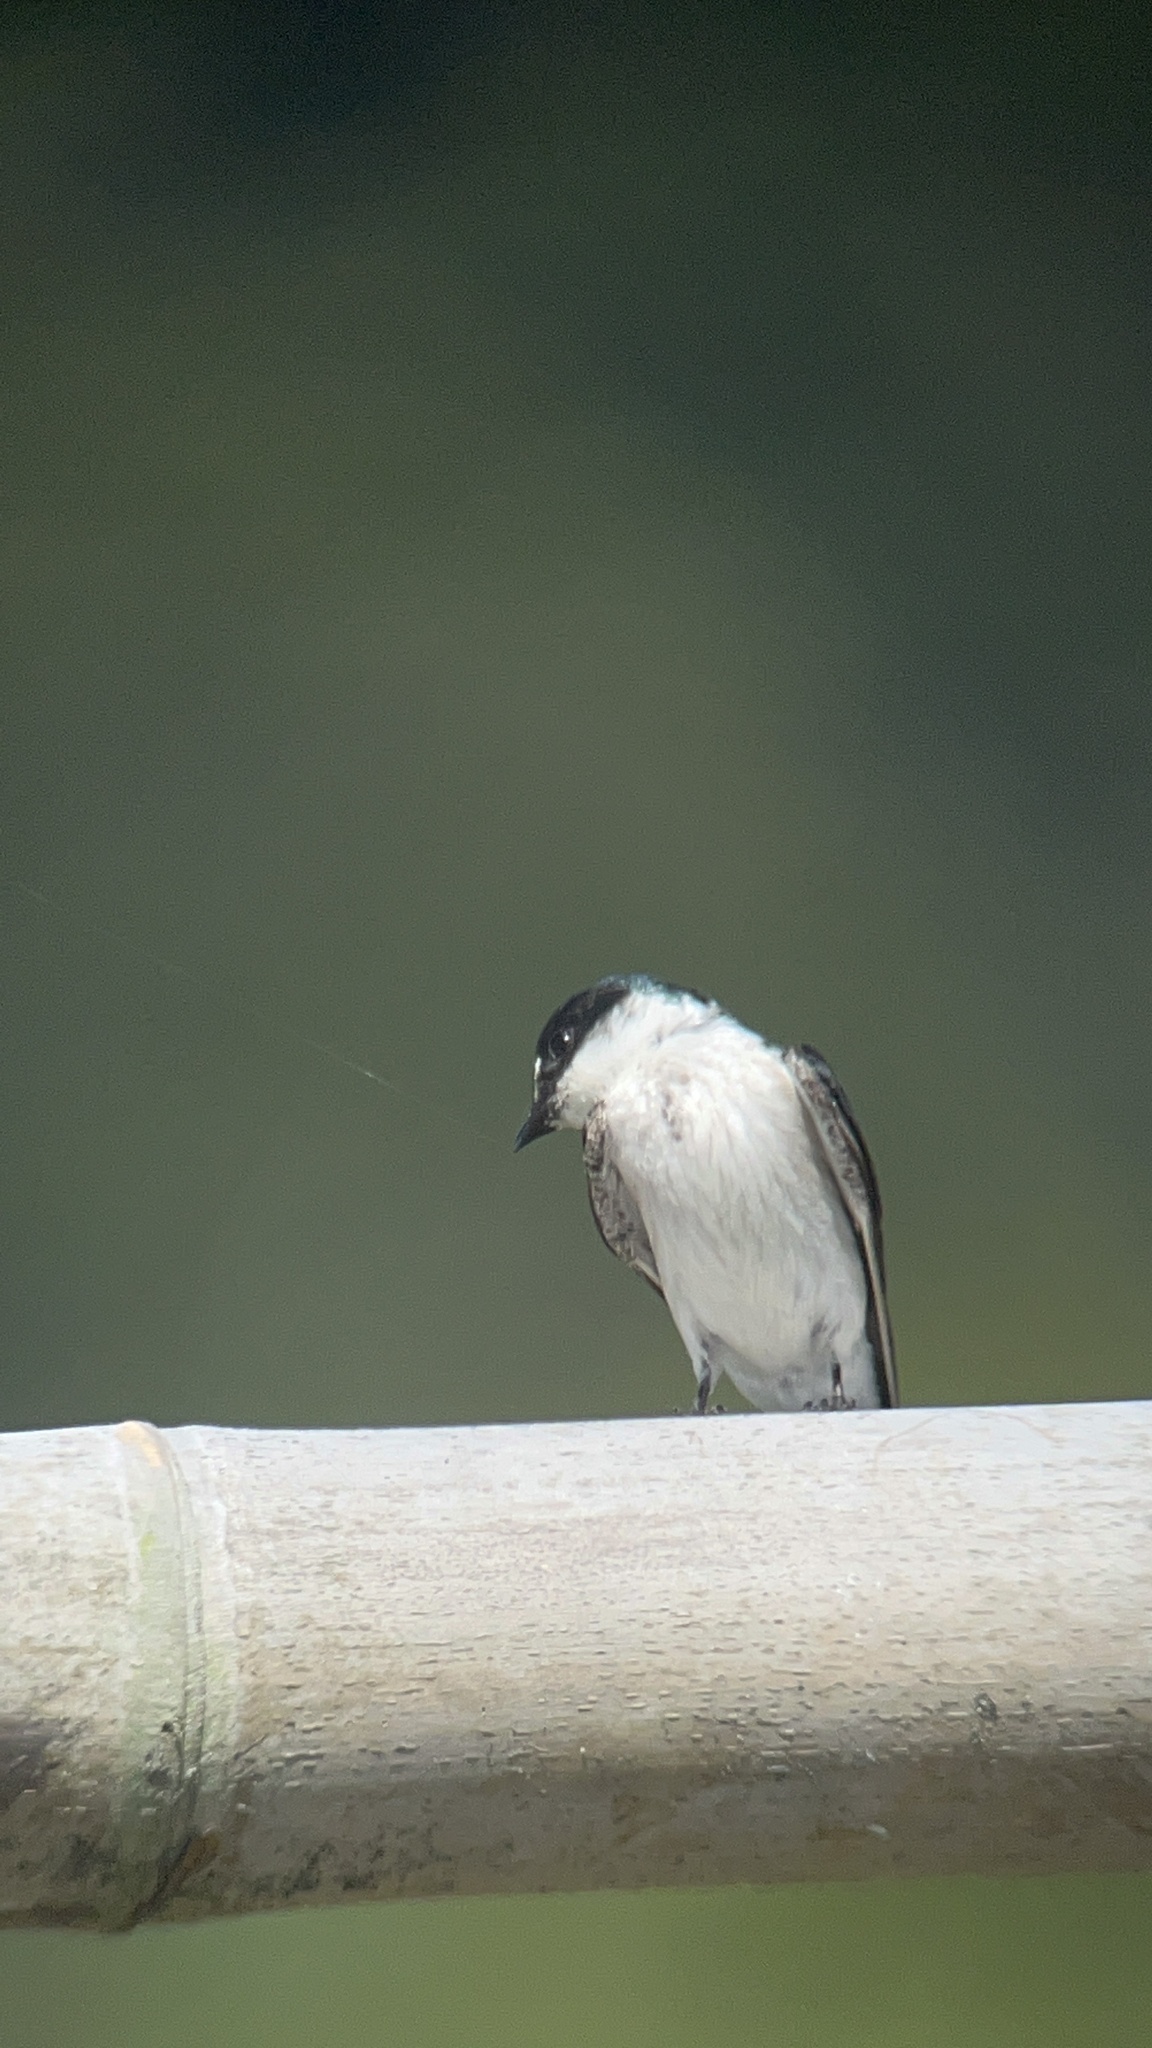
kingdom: Animalia
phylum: Chordata
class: Aves
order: Passeriformes
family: Hirundinidae
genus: Tachycineta
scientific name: Tachycineta albilinea
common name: Mangrove swallow
